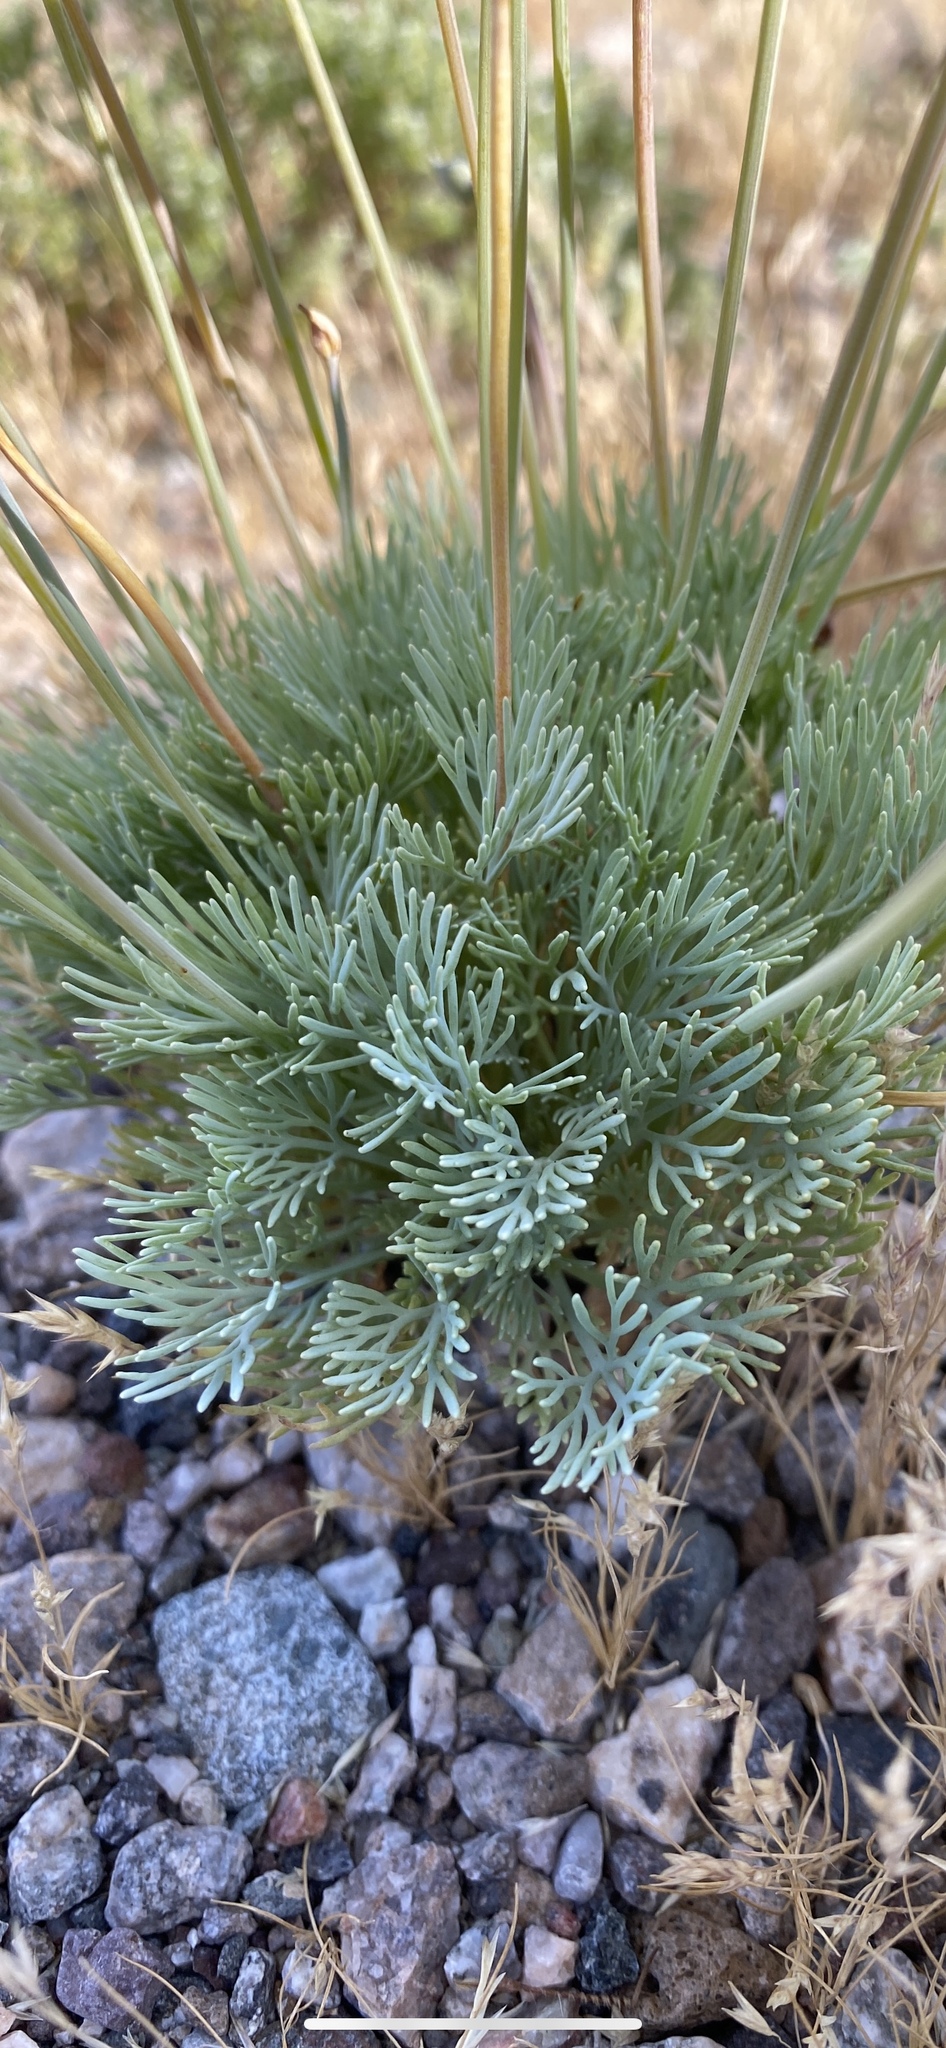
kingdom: Plantae
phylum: Tracheophyta
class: Magnoliopsida
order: Ranunculales
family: Papaveraceae
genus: Eschscholzia
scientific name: Eschscholzia glyptosperma
